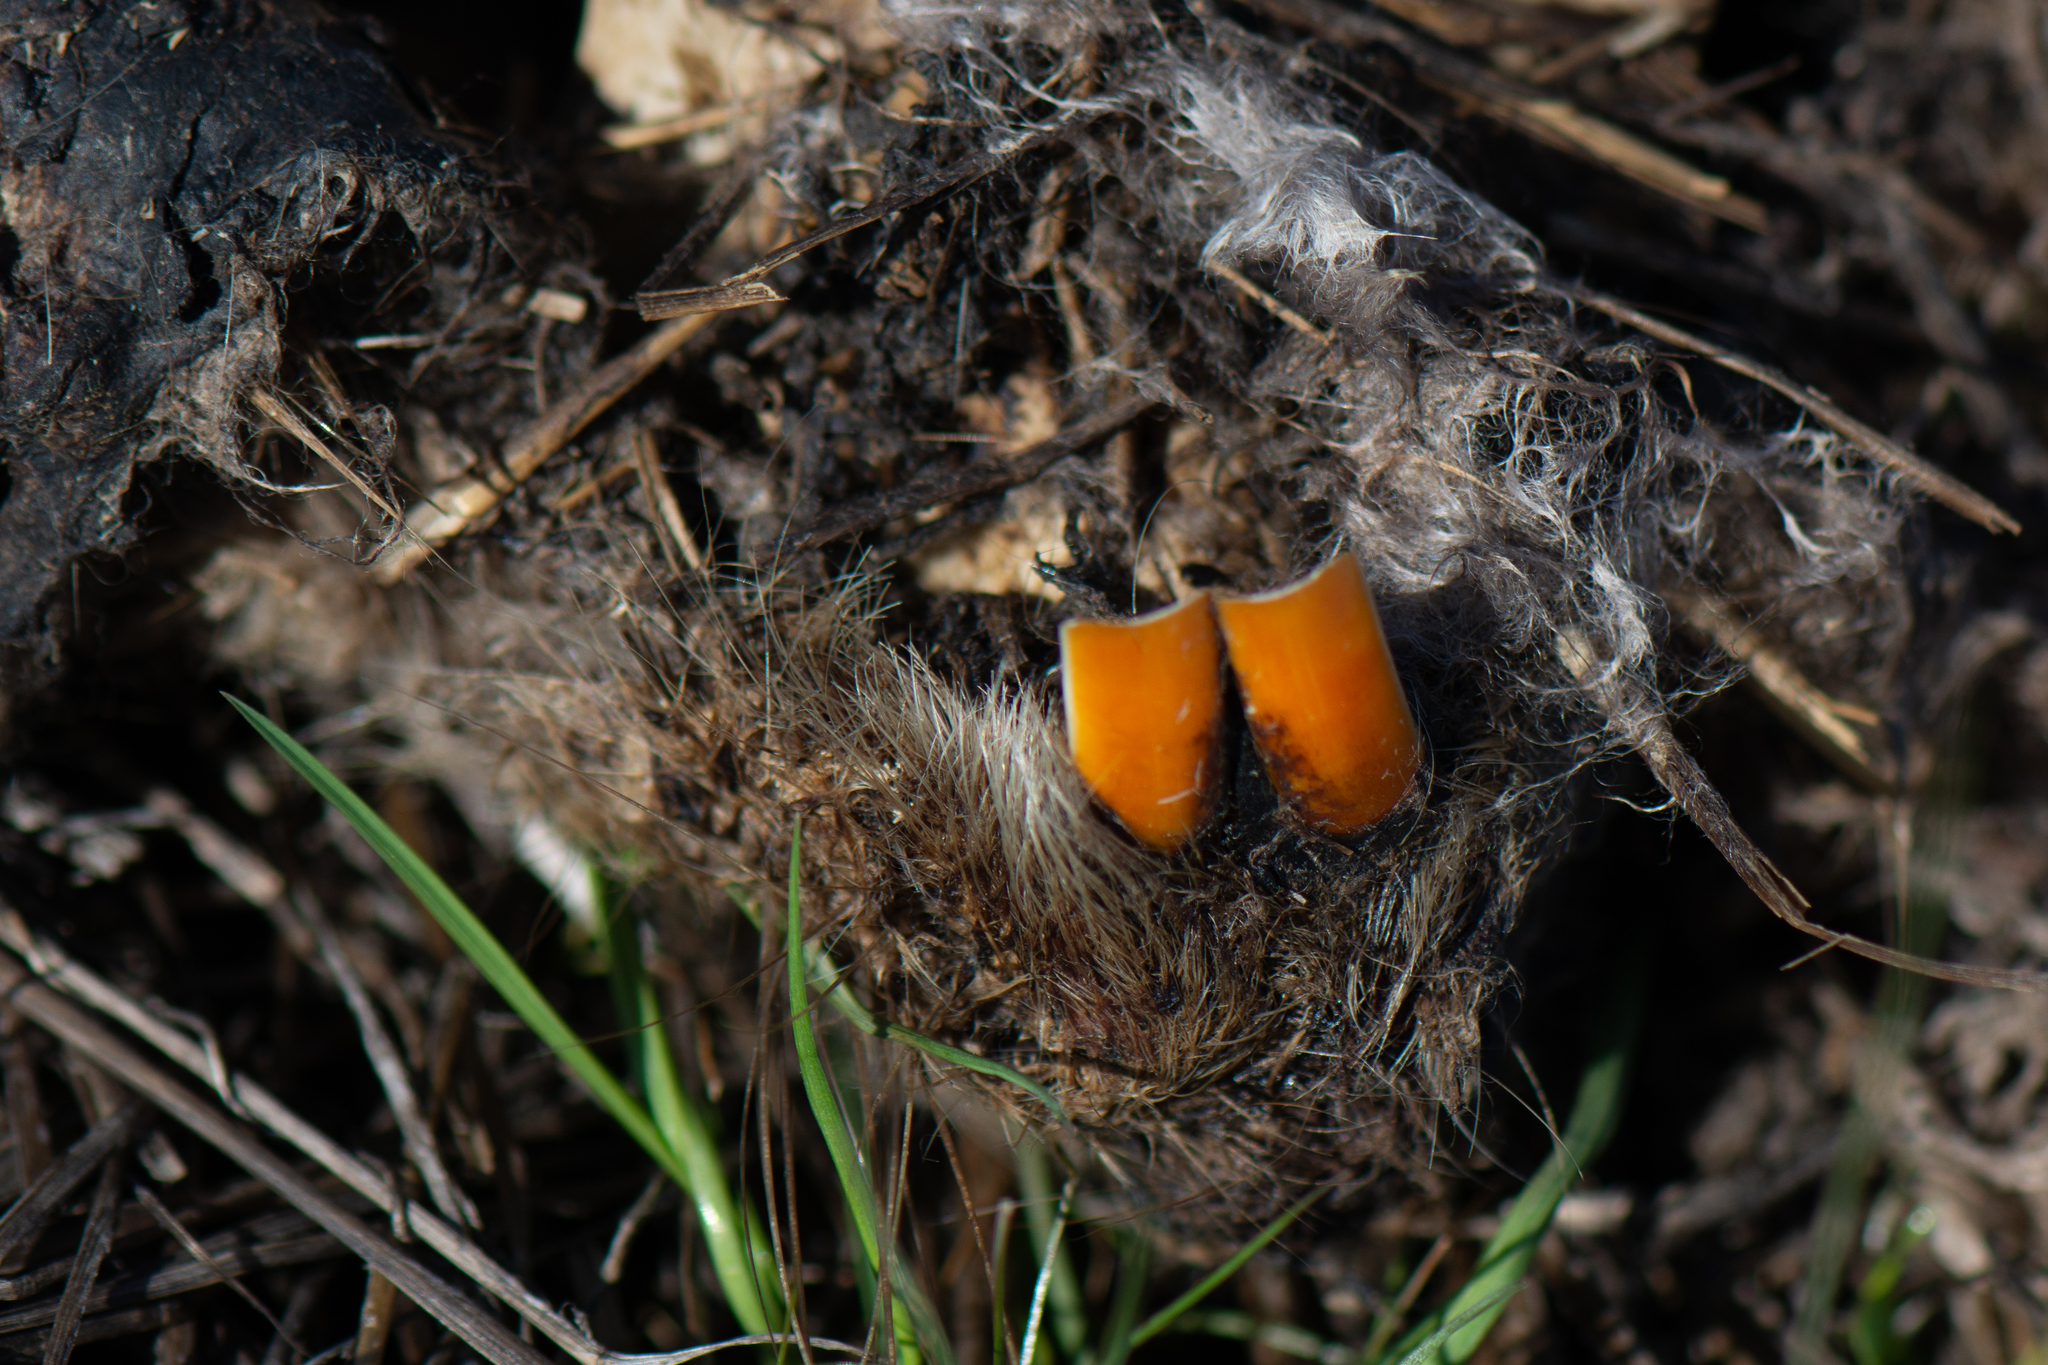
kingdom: Animalia
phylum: Chordata
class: Mammalia
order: Rodentia
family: Castoridae
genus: Castor
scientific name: Castor canadensis
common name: American beaver
